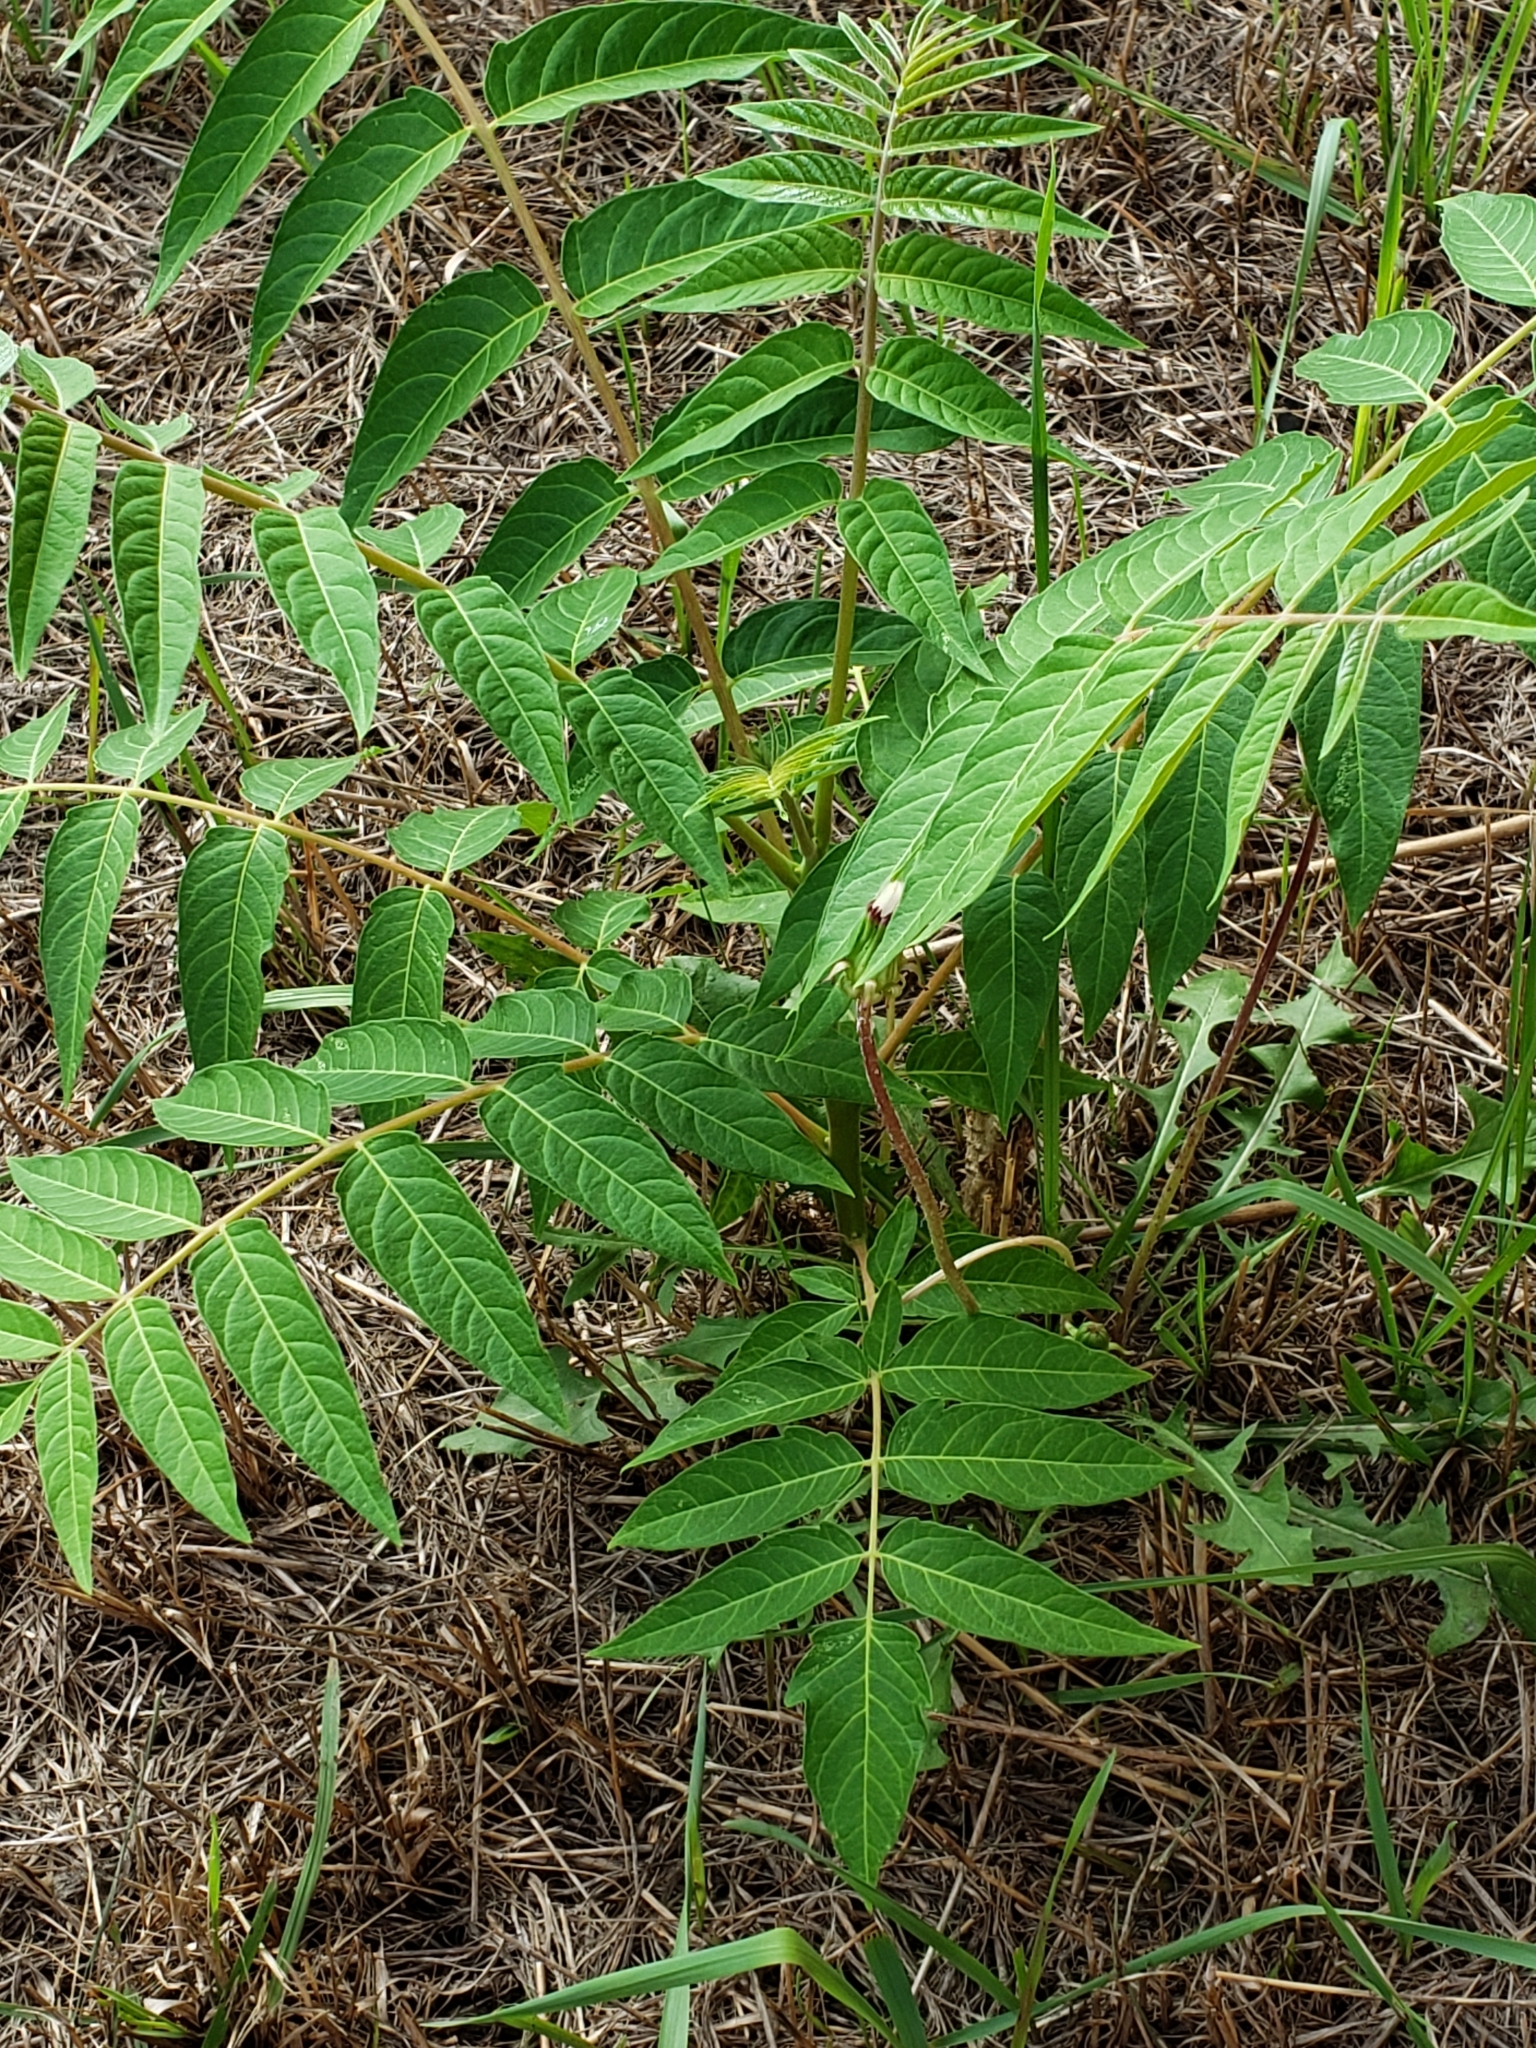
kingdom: Plantae
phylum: Tracheophyta
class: Magnoliopsida
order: Sapindales
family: Simaroubaceae
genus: Ailanthus
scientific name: Ailanthus altissima
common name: Tree-of-heaven
